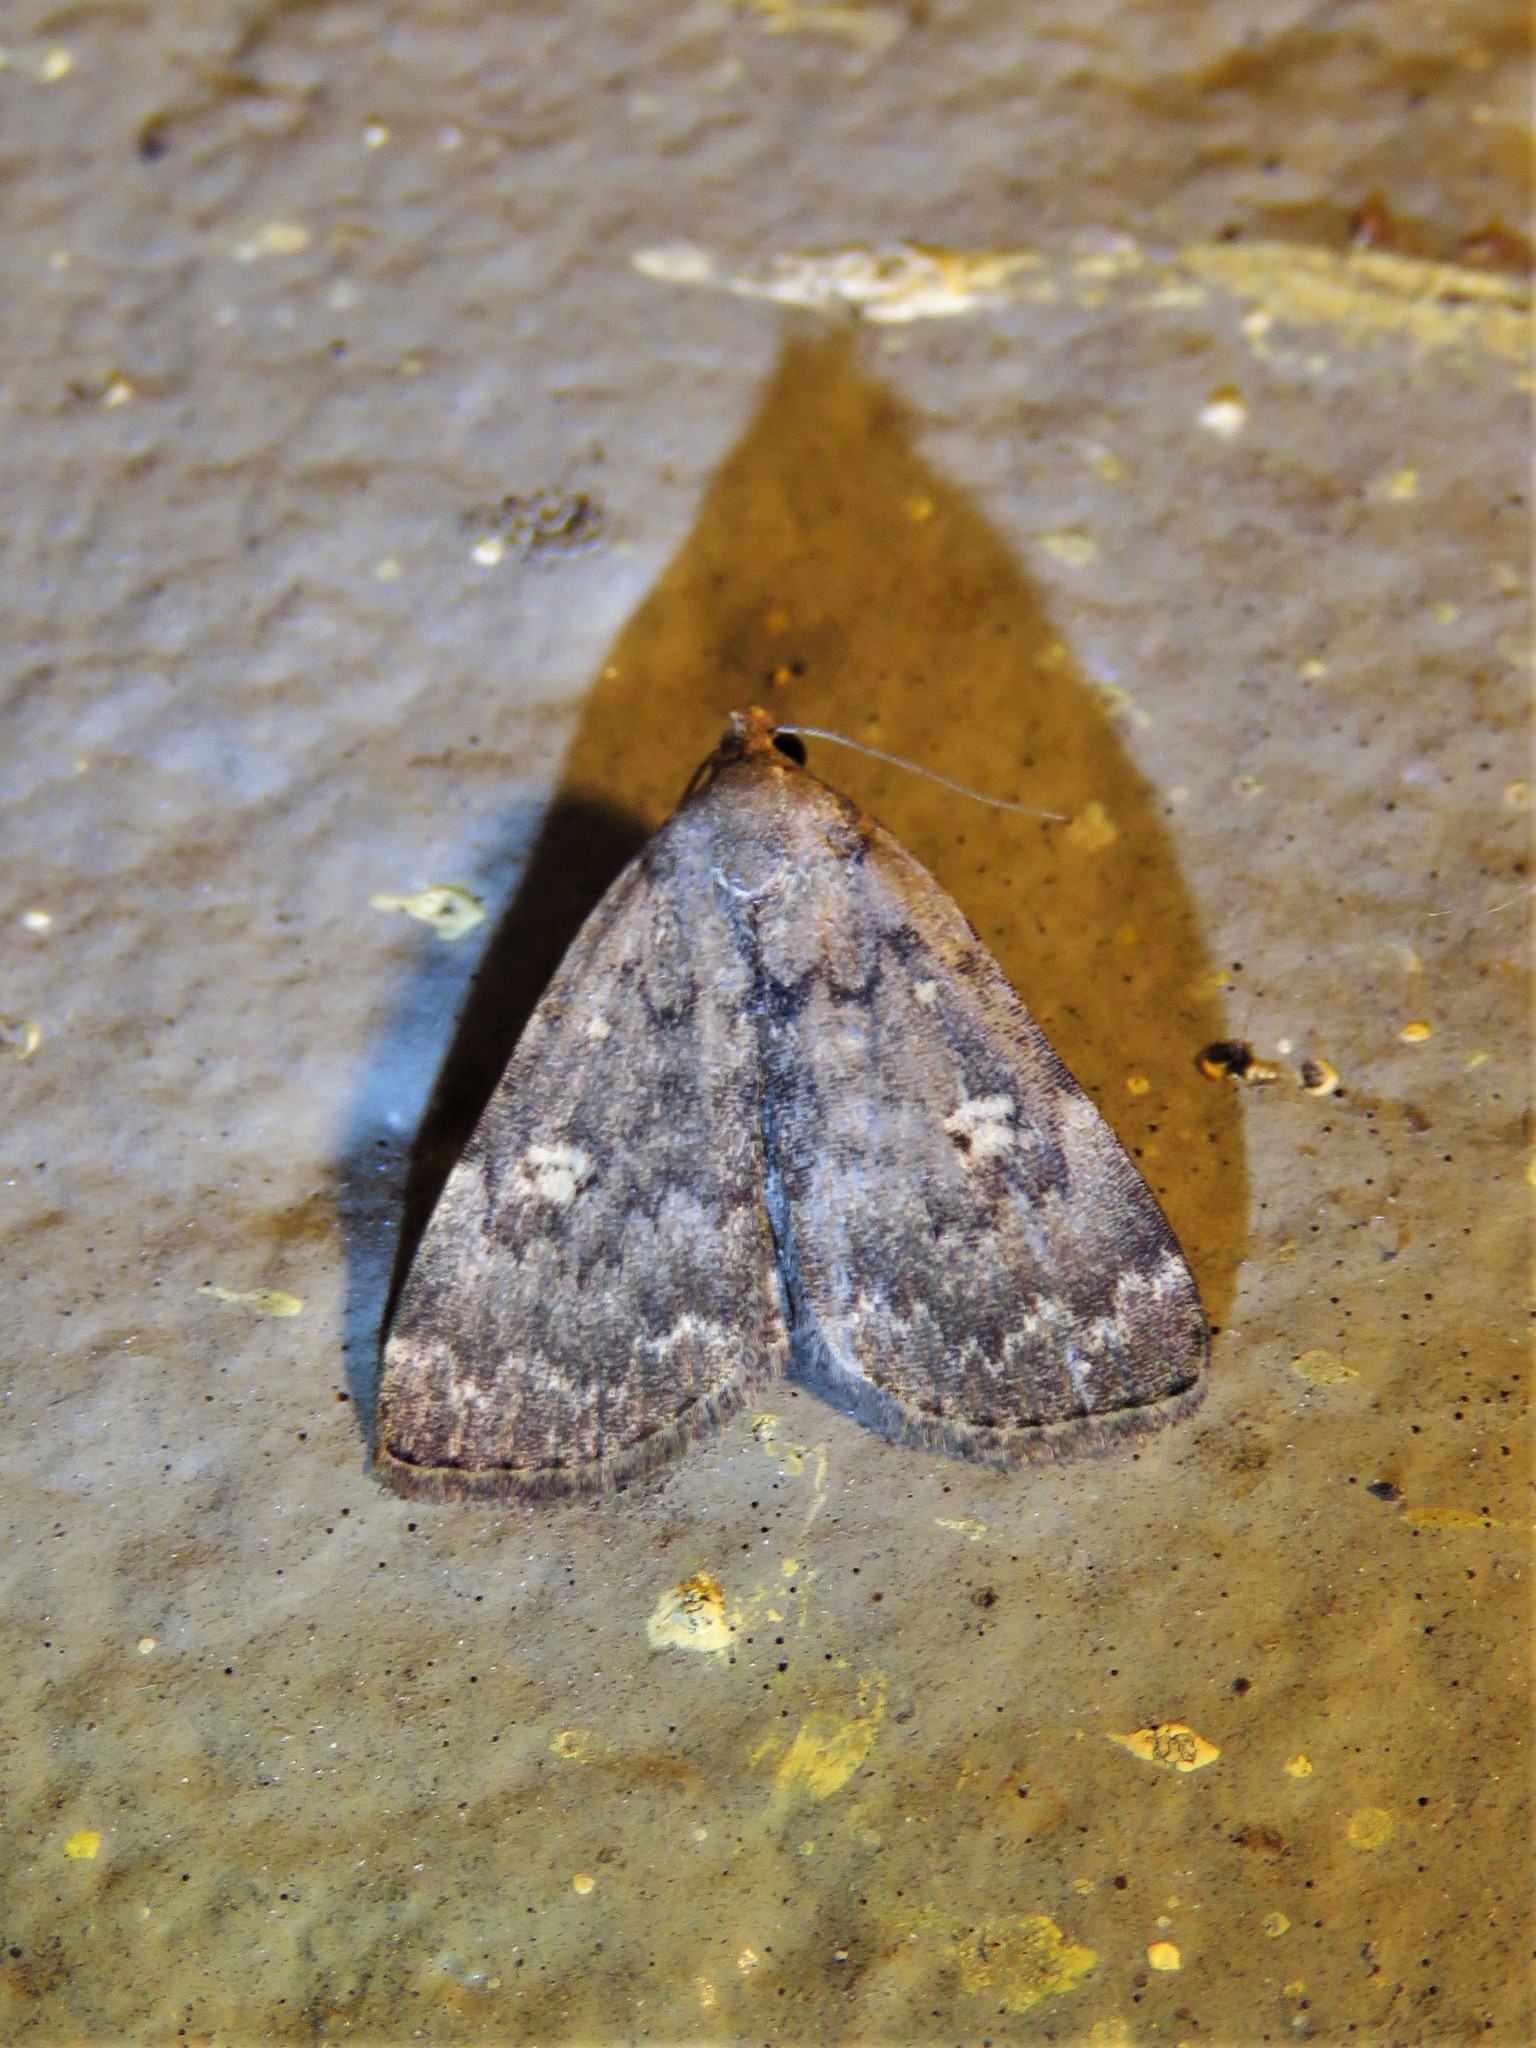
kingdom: Animalia
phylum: Arthropoda
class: Insecta
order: Lepidoptera
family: Erebidae
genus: Idia
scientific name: Idia aemula
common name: Common idia moth
